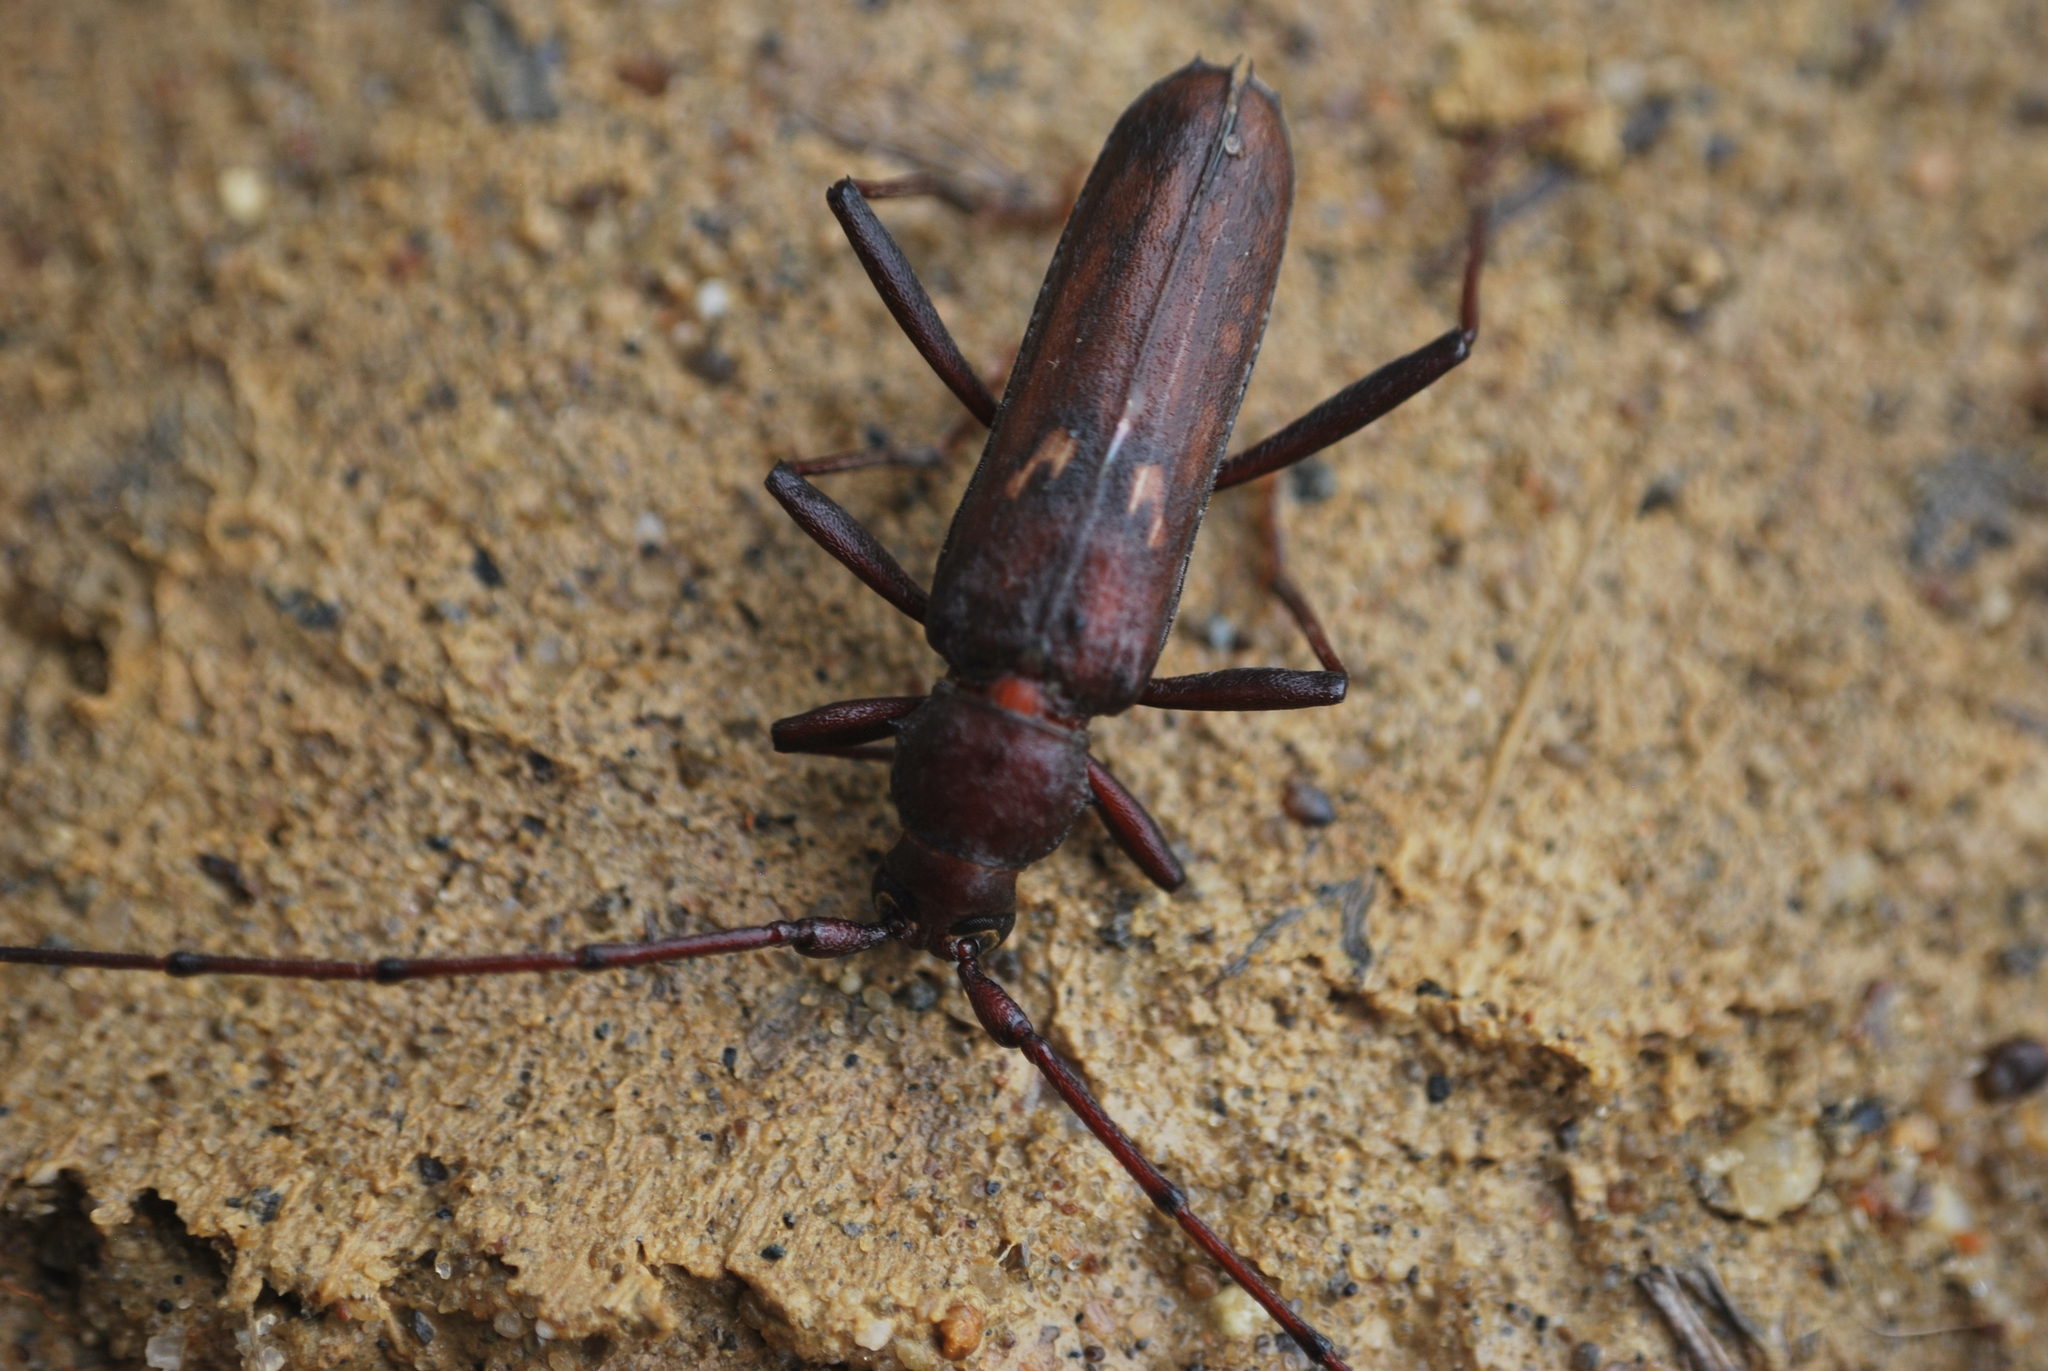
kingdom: Animalia
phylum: Arthropoda
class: Insecta
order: Coleoptera
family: Cerambycidae
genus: Knulliana
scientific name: Knulliana cincta
